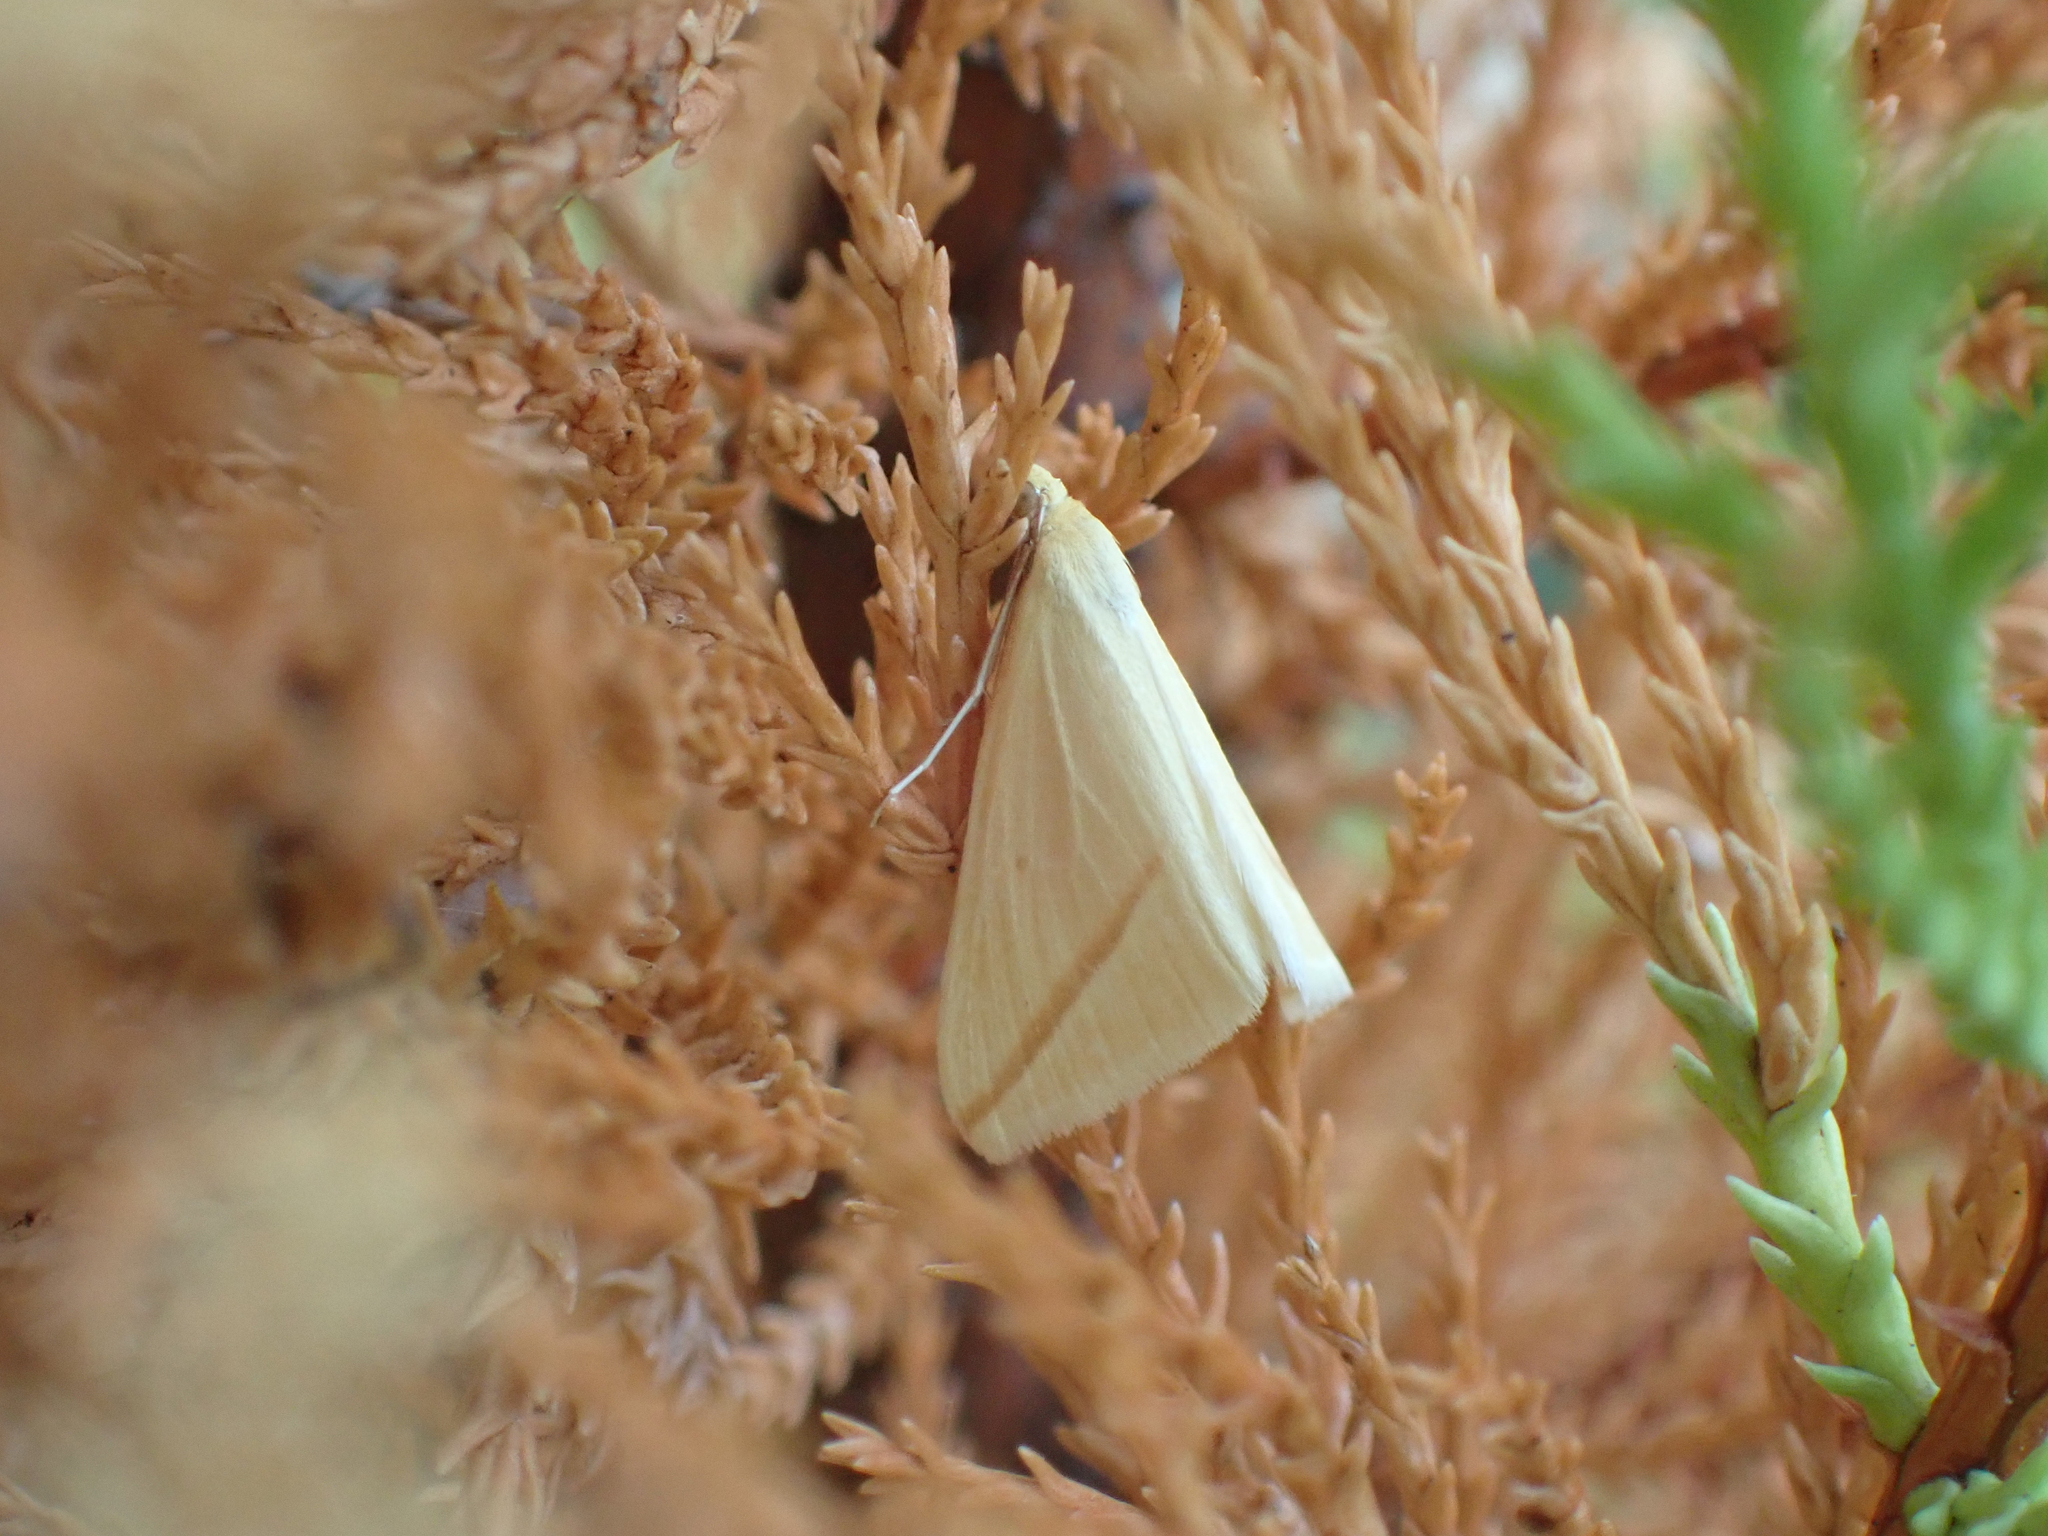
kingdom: Animalia
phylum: Arthropoda
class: Insecta
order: Lepidoptera
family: Geometridae
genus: Rhodometra
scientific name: Rhodometra sacraria
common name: Vestal
